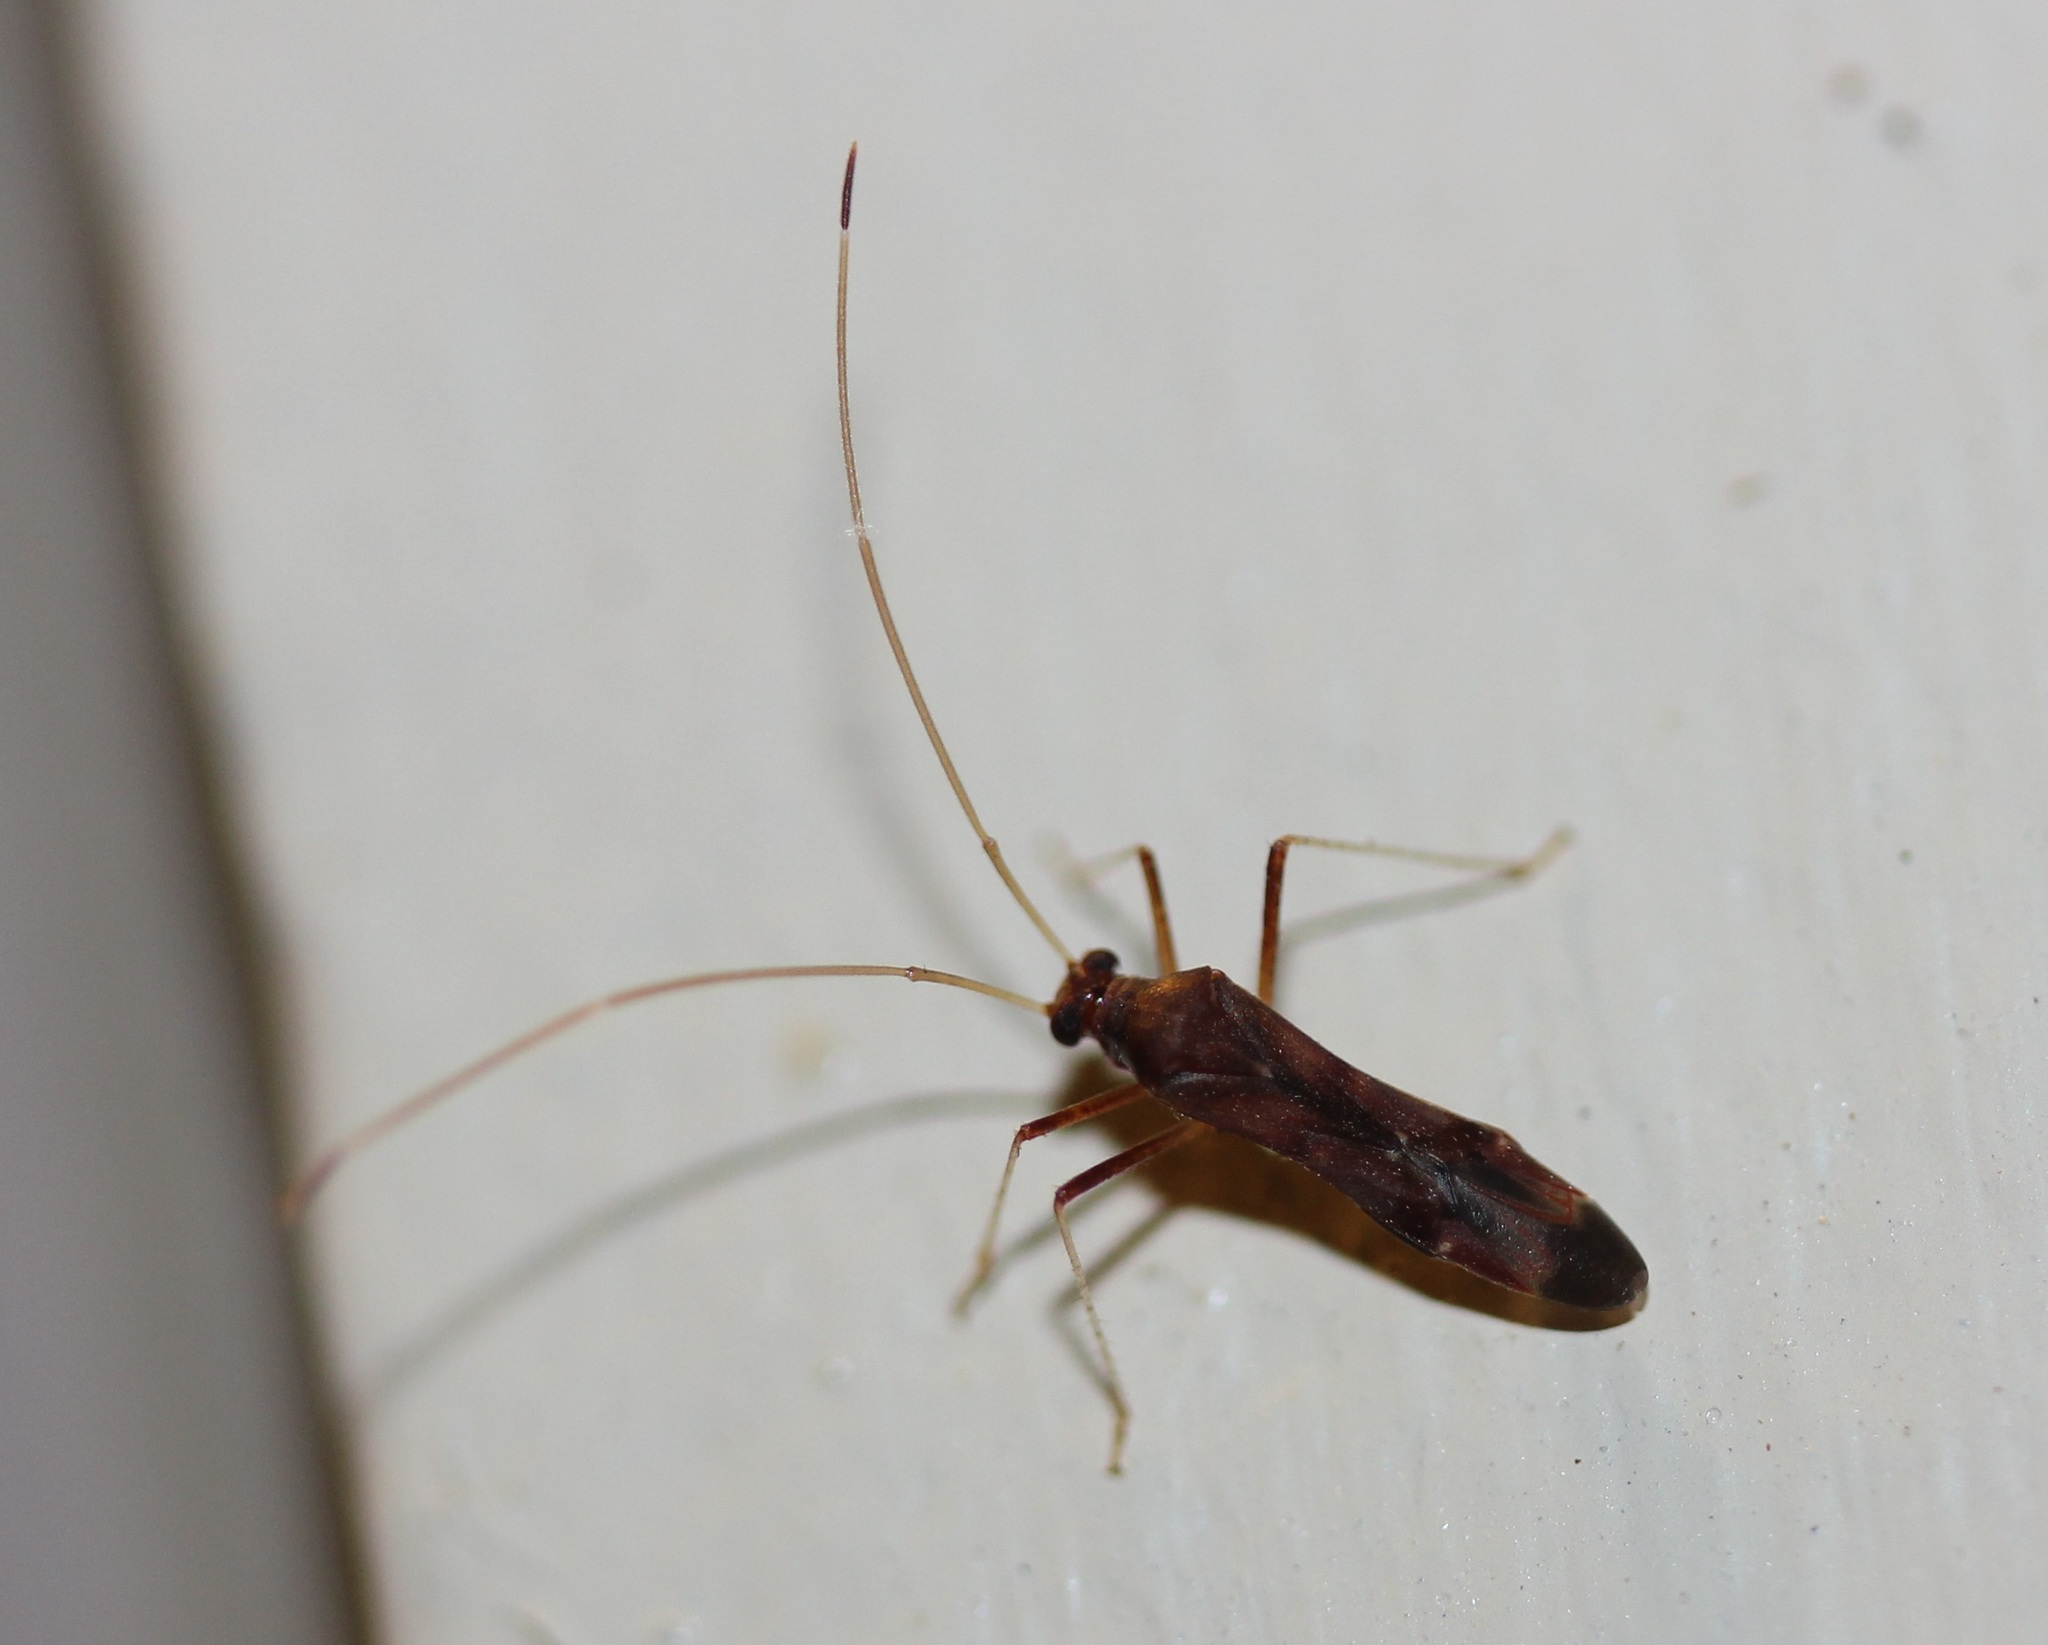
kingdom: Animalia
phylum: Arthropoda
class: Insecta
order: Hemiptera
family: Miridae
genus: Paraxenetus
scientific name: Paraxenetus guttulatus
